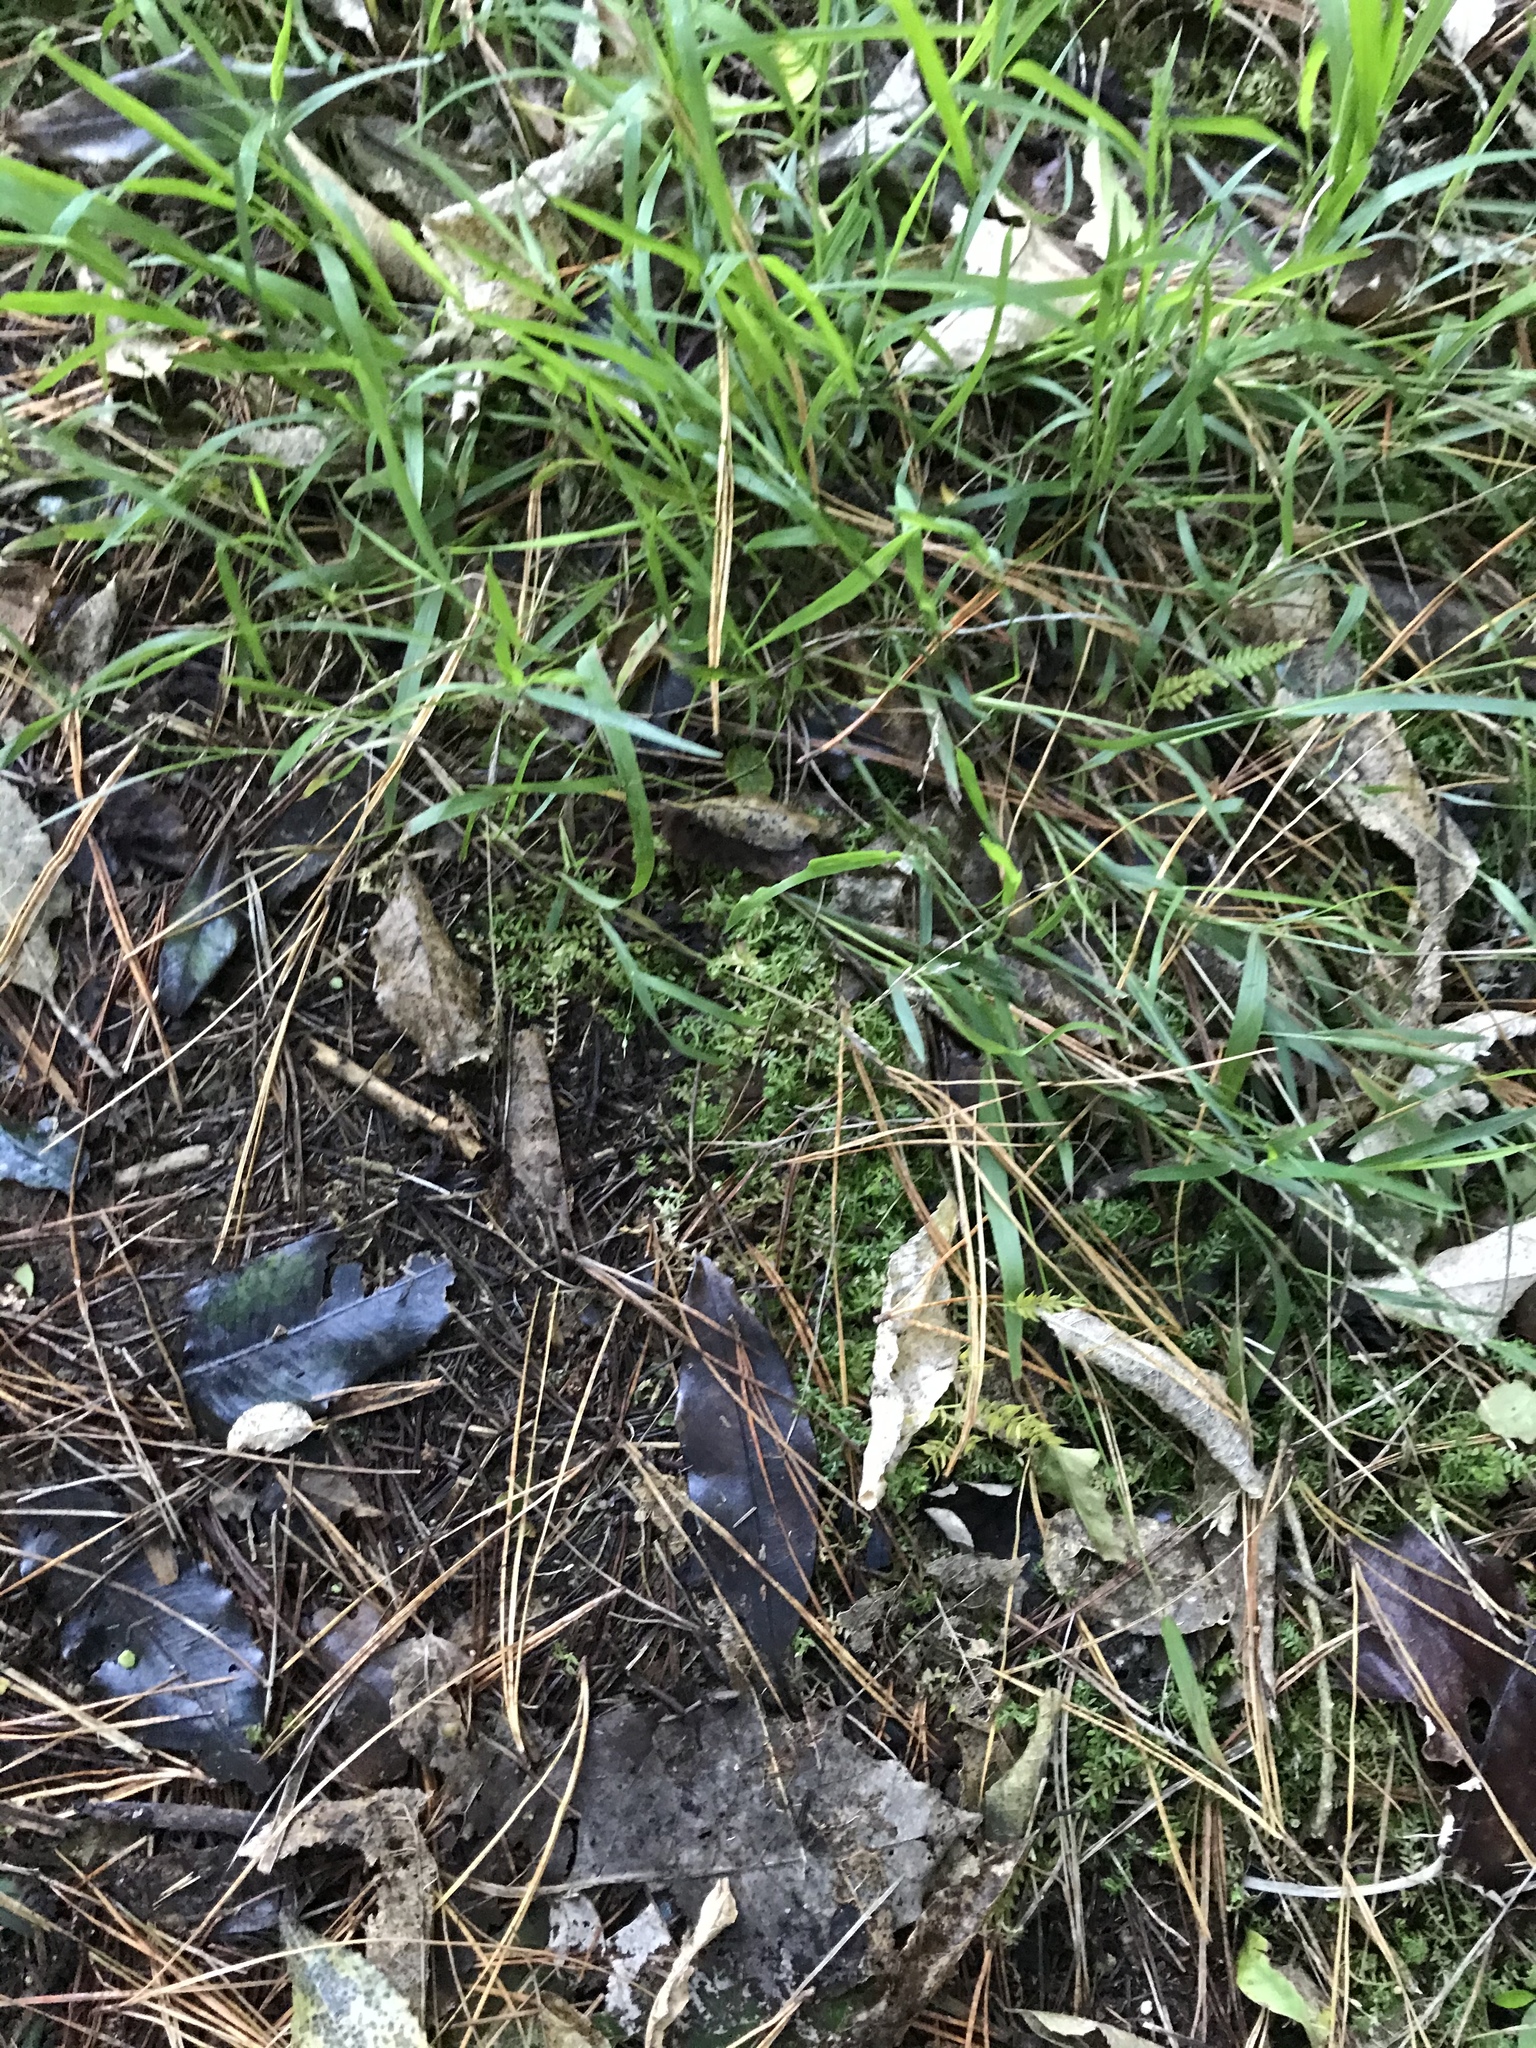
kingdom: Plantae
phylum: Tracheophyta
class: Lycopodiopsida
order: Selaginellales
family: Selaginellaceae
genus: Selaginella
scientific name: Selaginella kraussiana
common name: Krauss' spikemoss
